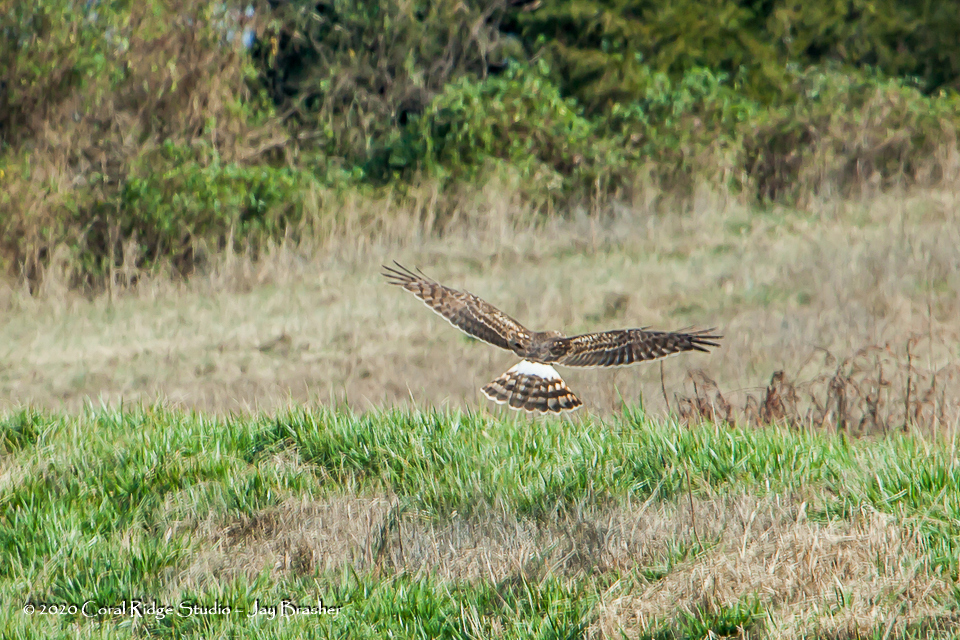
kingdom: Animalia
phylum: Chordata
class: Aves
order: Accipitriformes
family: Accipitridae
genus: Circus
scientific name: Circus cyaneus
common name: Hen harrier
